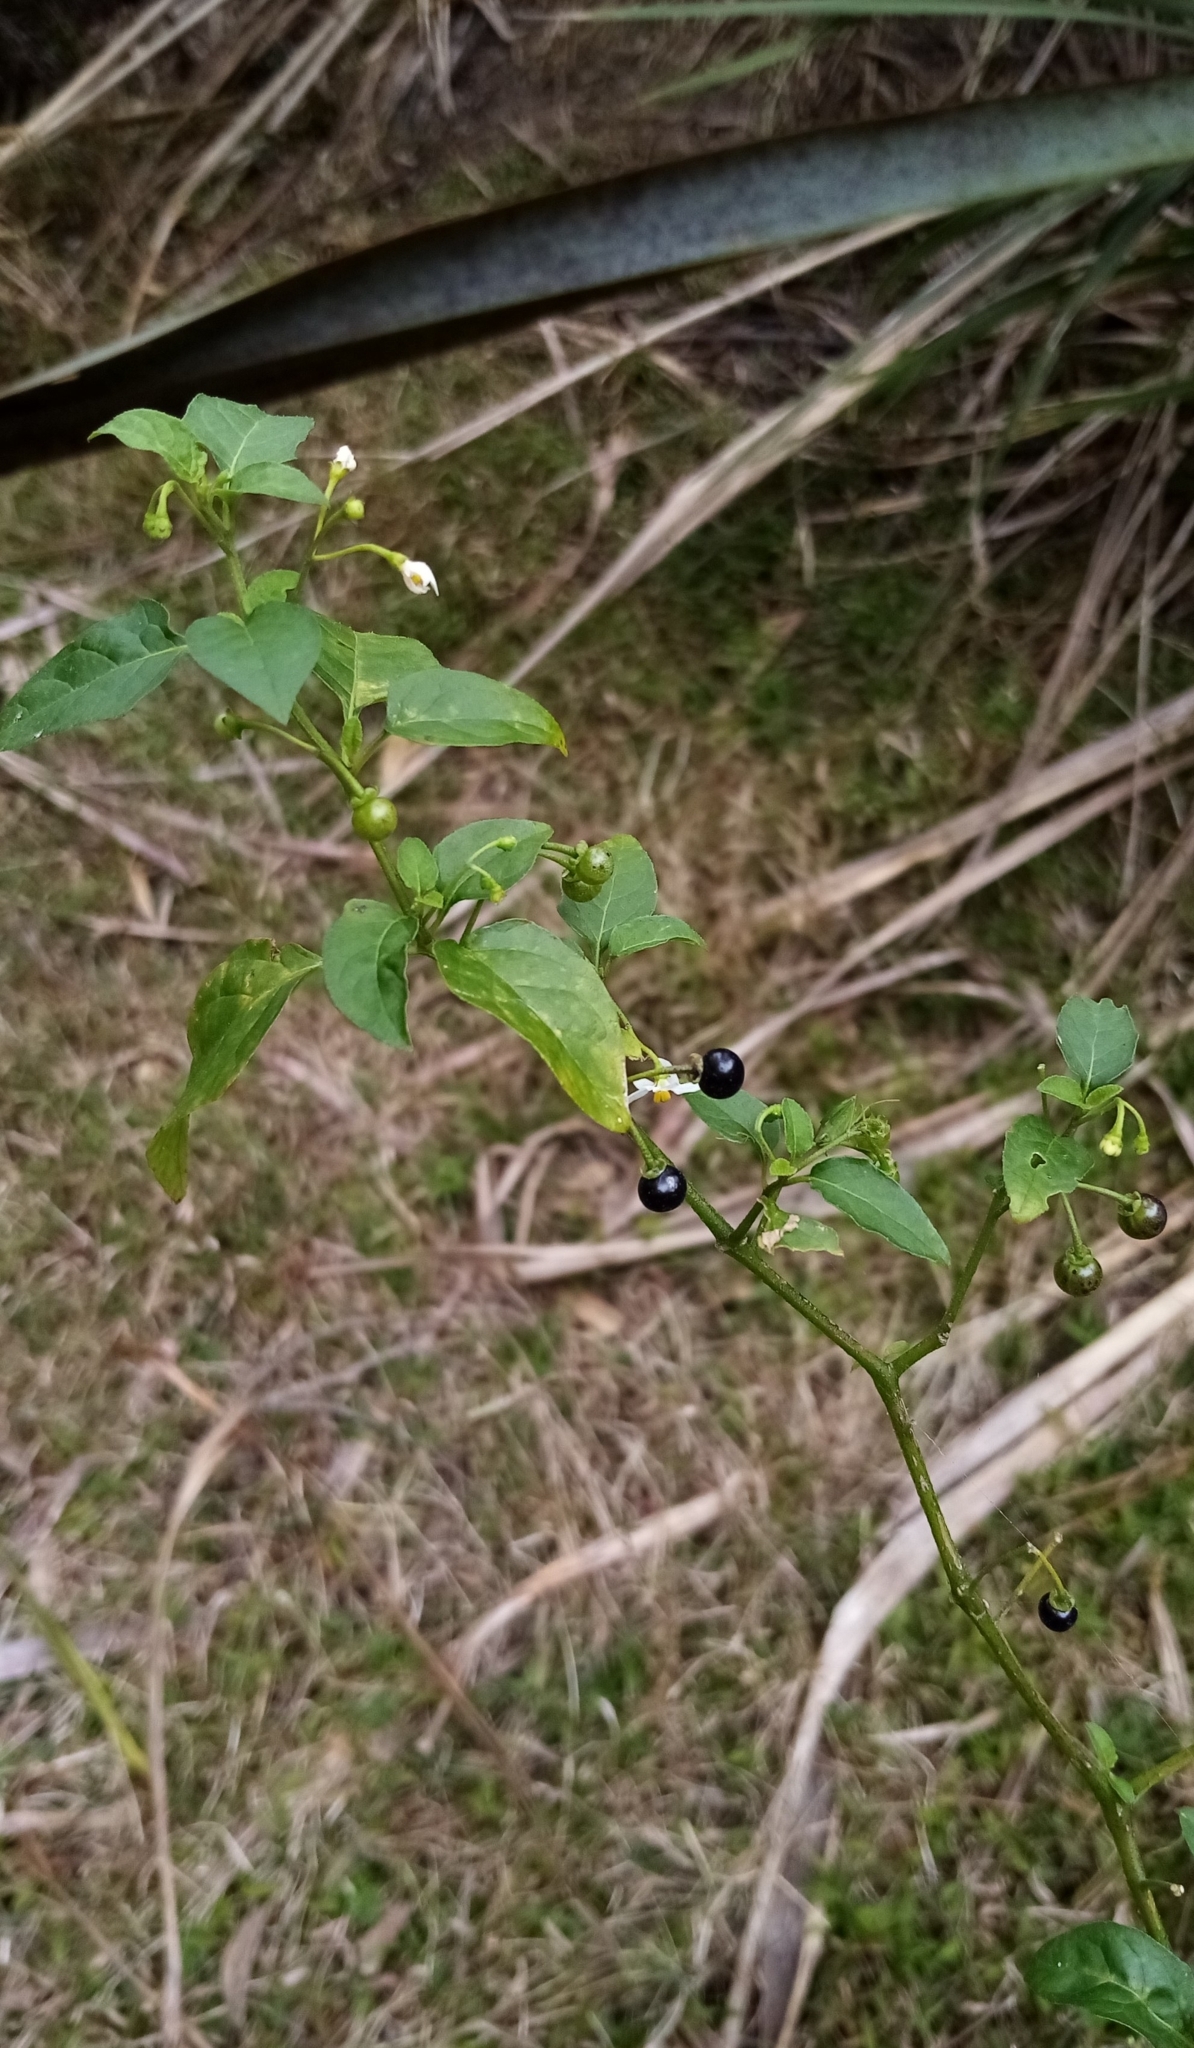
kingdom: Plantae
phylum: Tracheophyta
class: Magnoliopsida
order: Solanales
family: Solanaceae
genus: Solanum
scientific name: Solanum americanum
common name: American black nightshade
